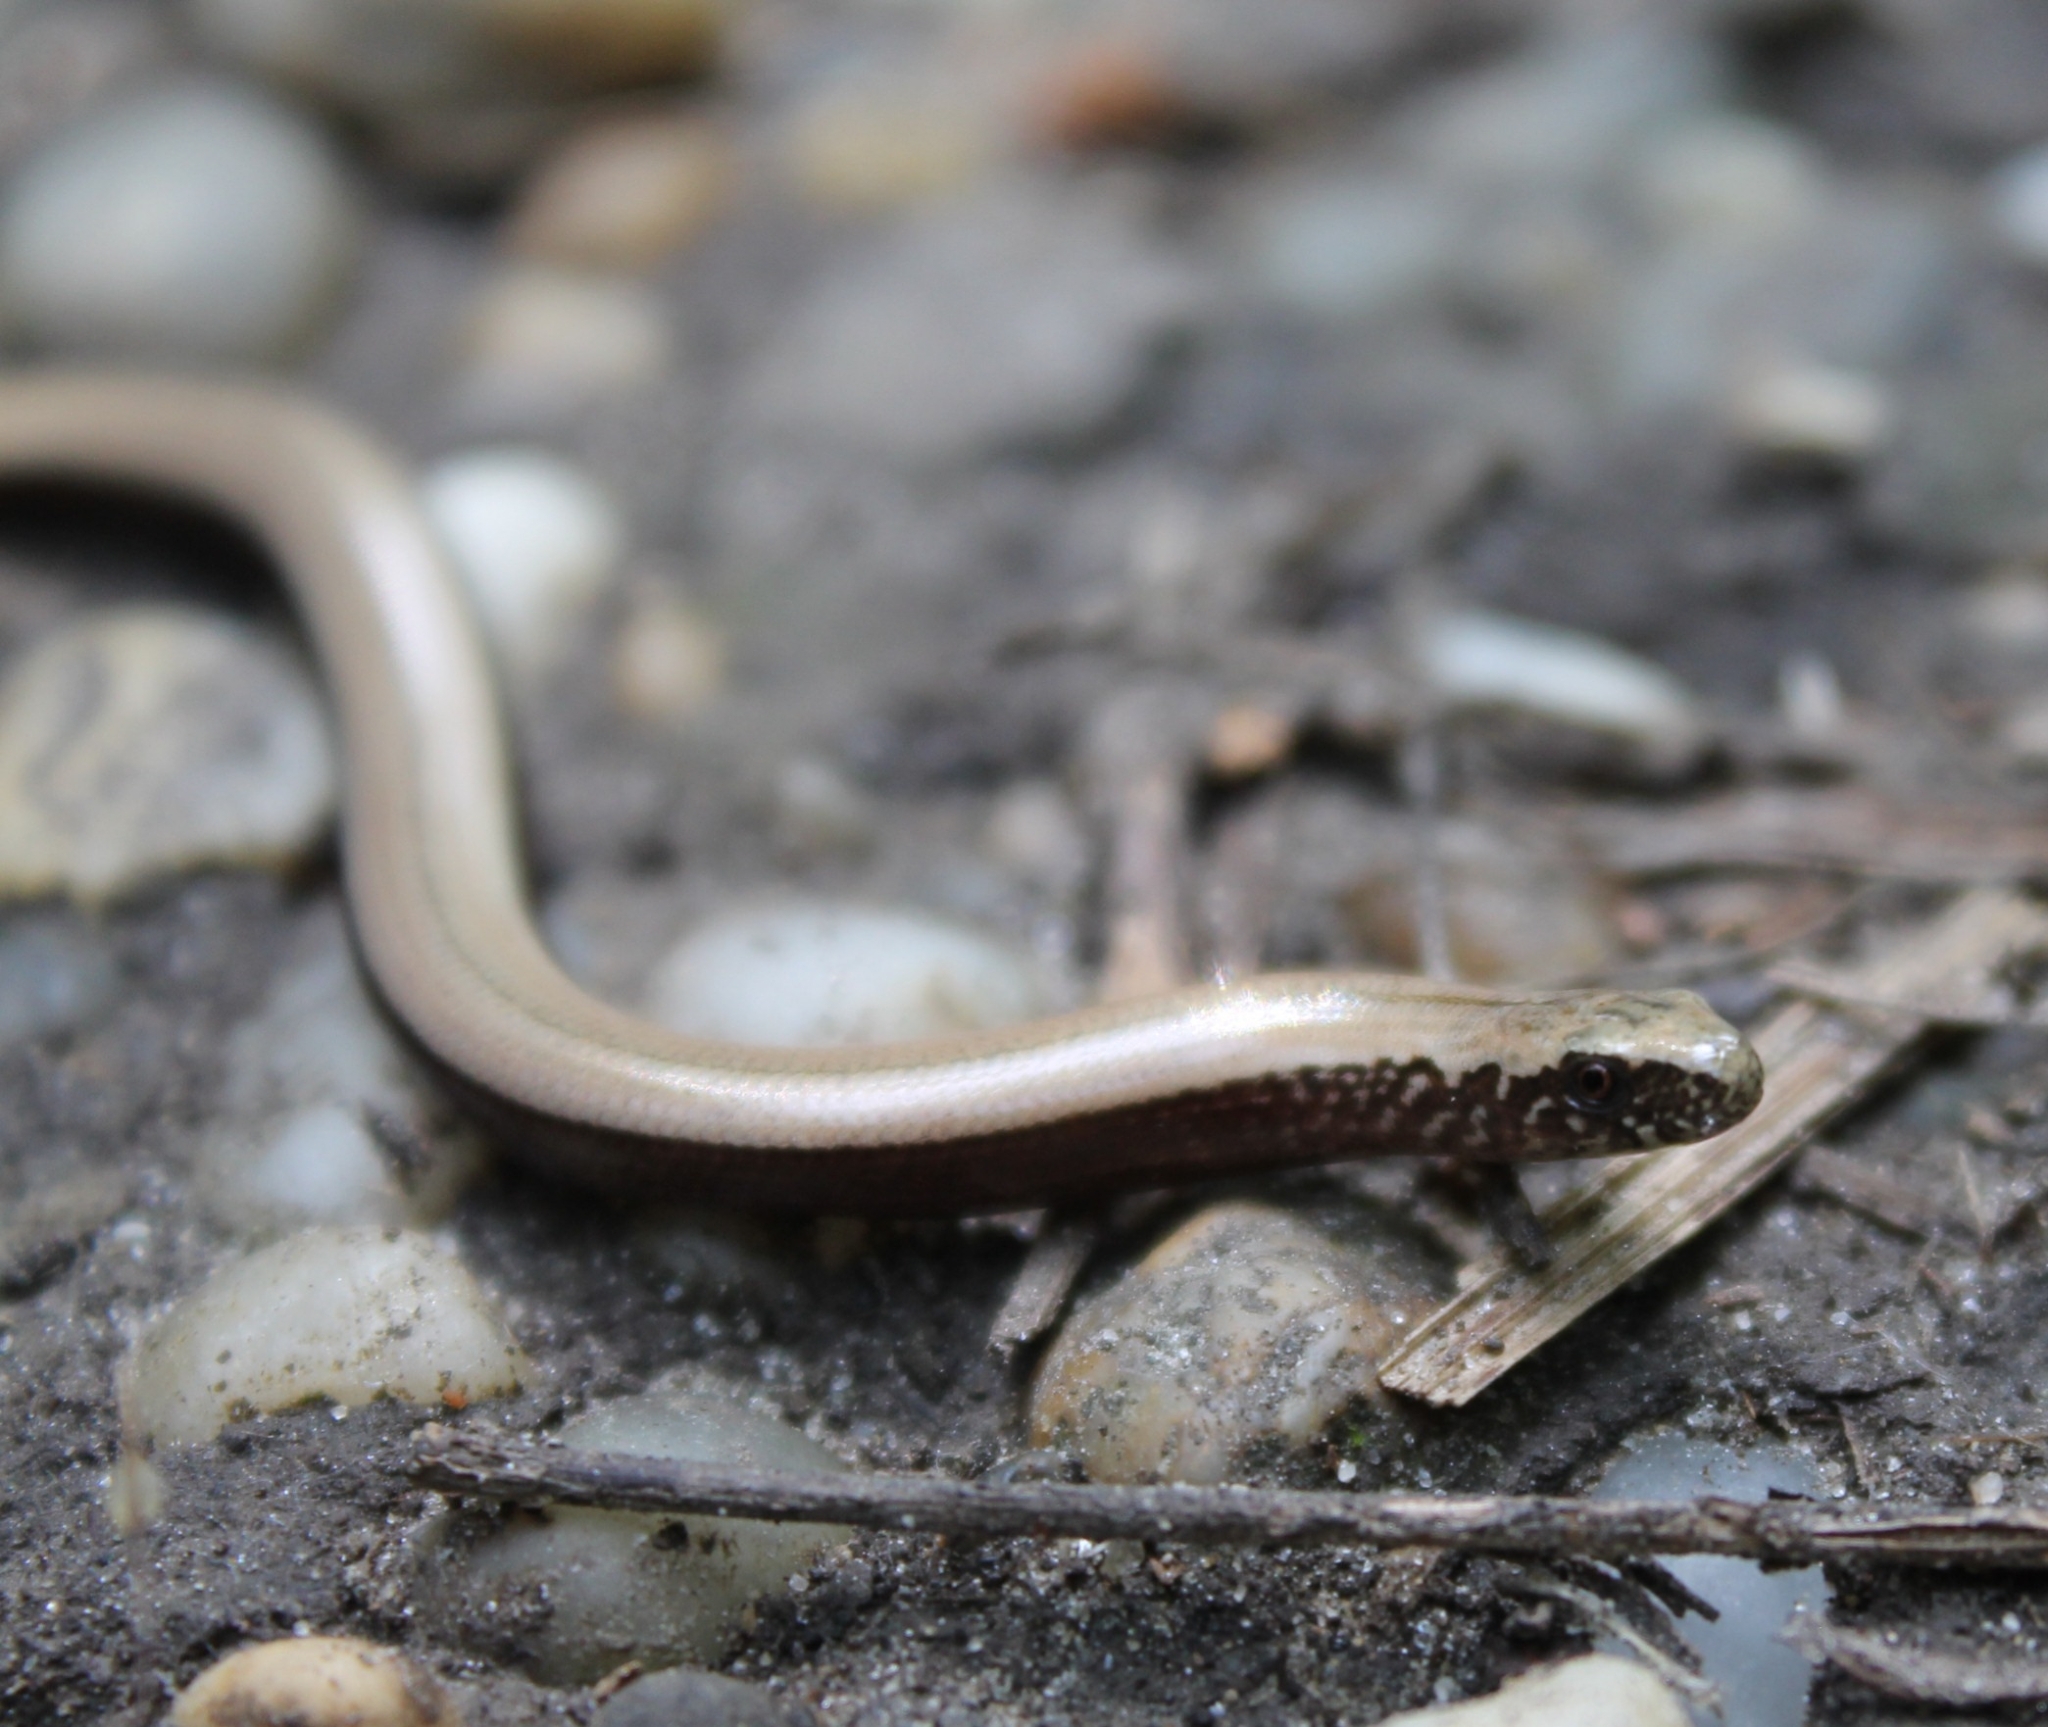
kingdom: Animalia
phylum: Chordata
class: Squamata
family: Anguidae
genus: Anguis
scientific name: Anguis fragilis
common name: Slow worm
